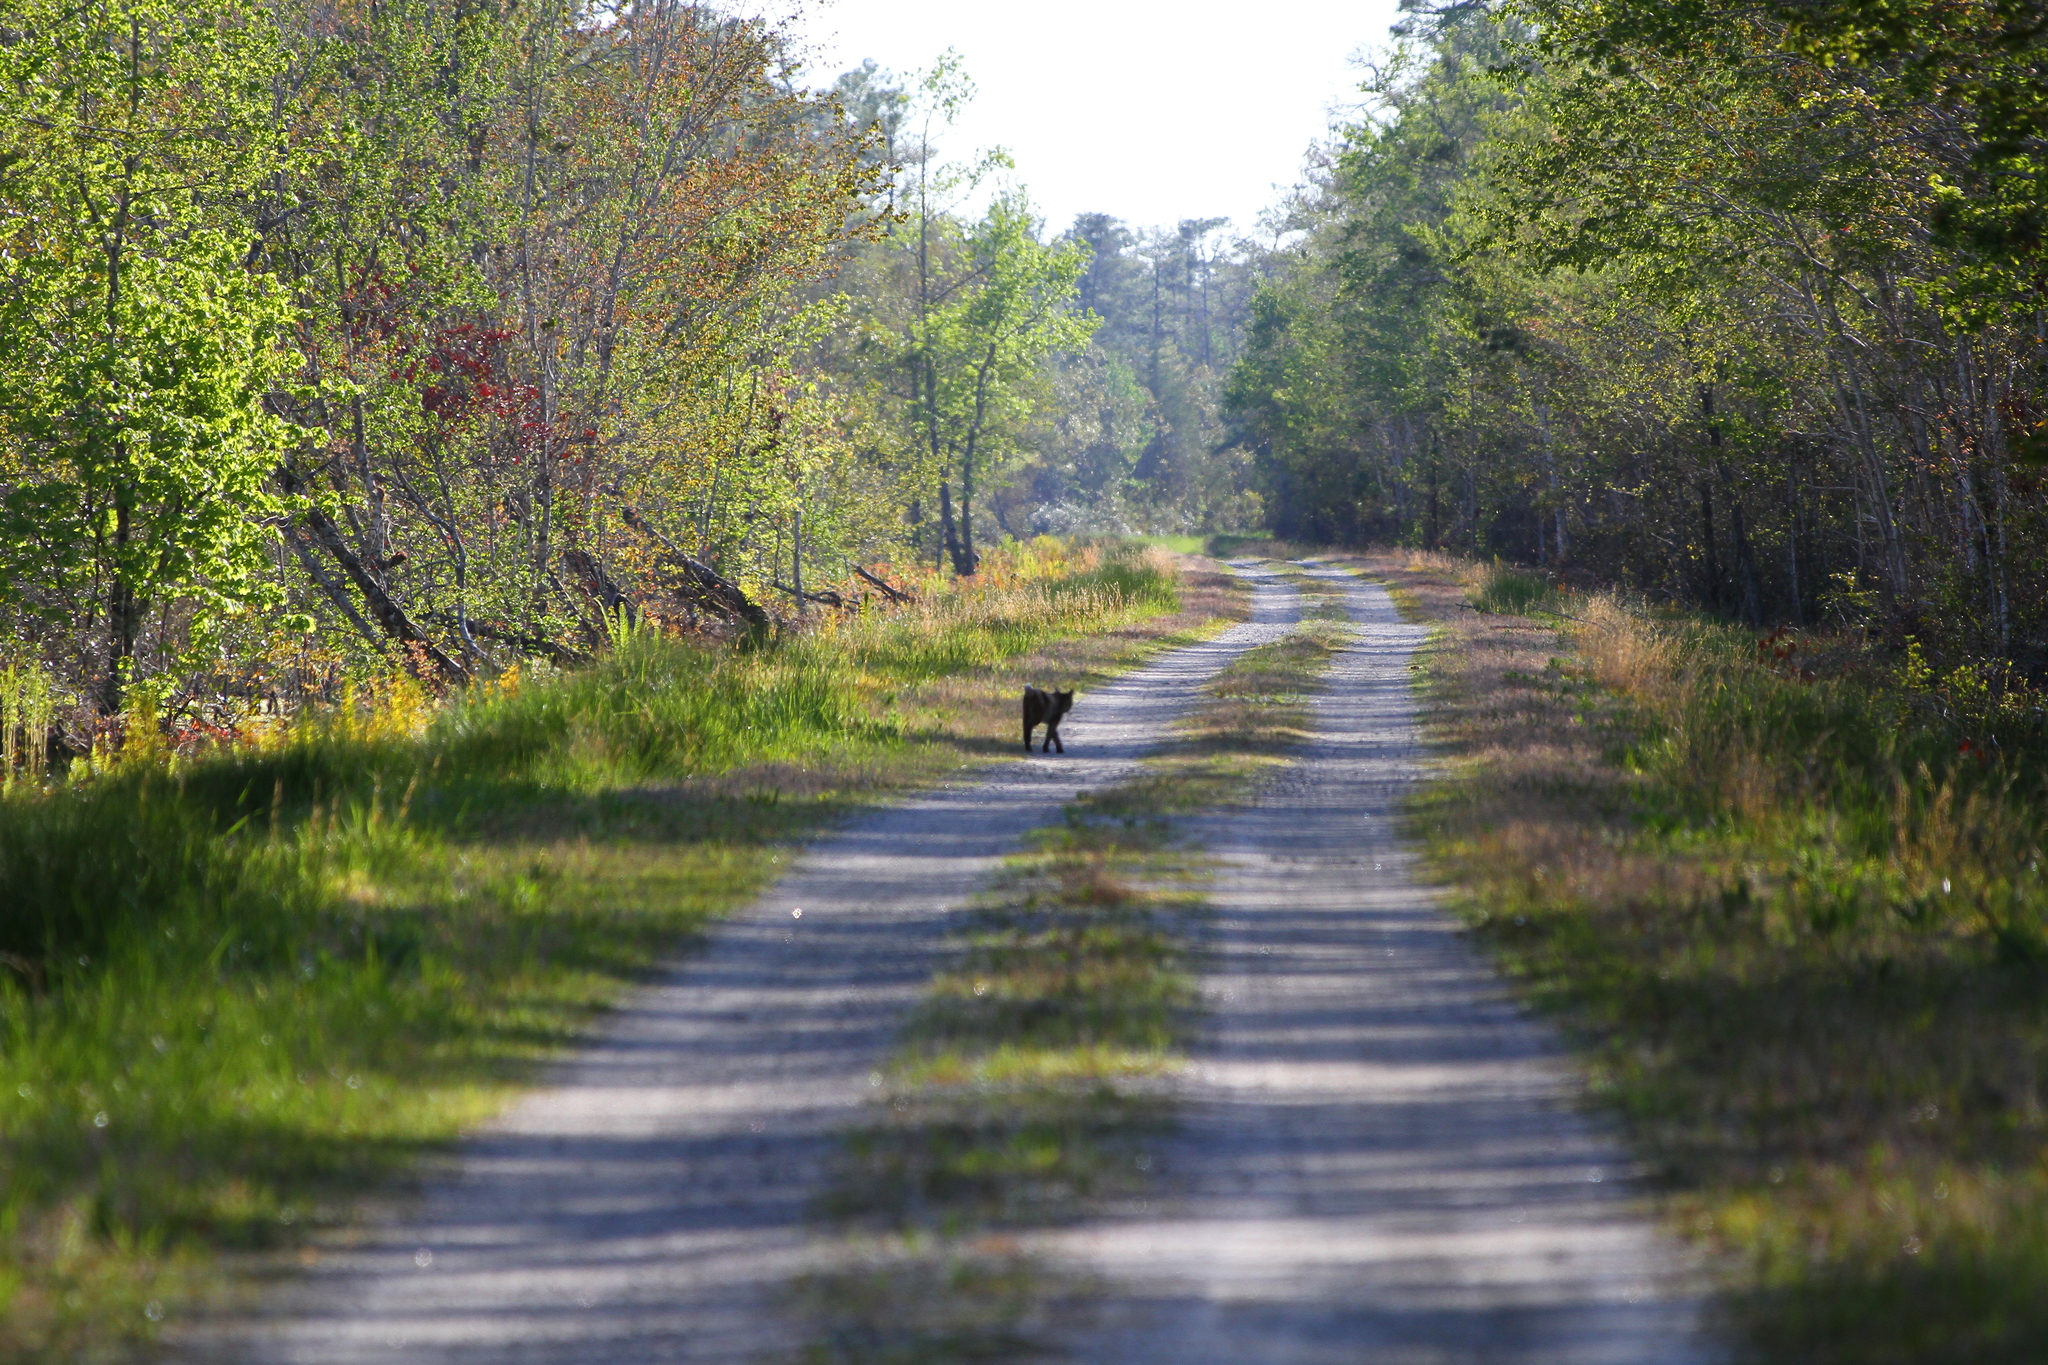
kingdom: Animalia
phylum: Chordata
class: Mammalia
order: Carnivora
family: Felidae
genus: Lynx
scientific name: Lynx rufus
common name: Bobcat
